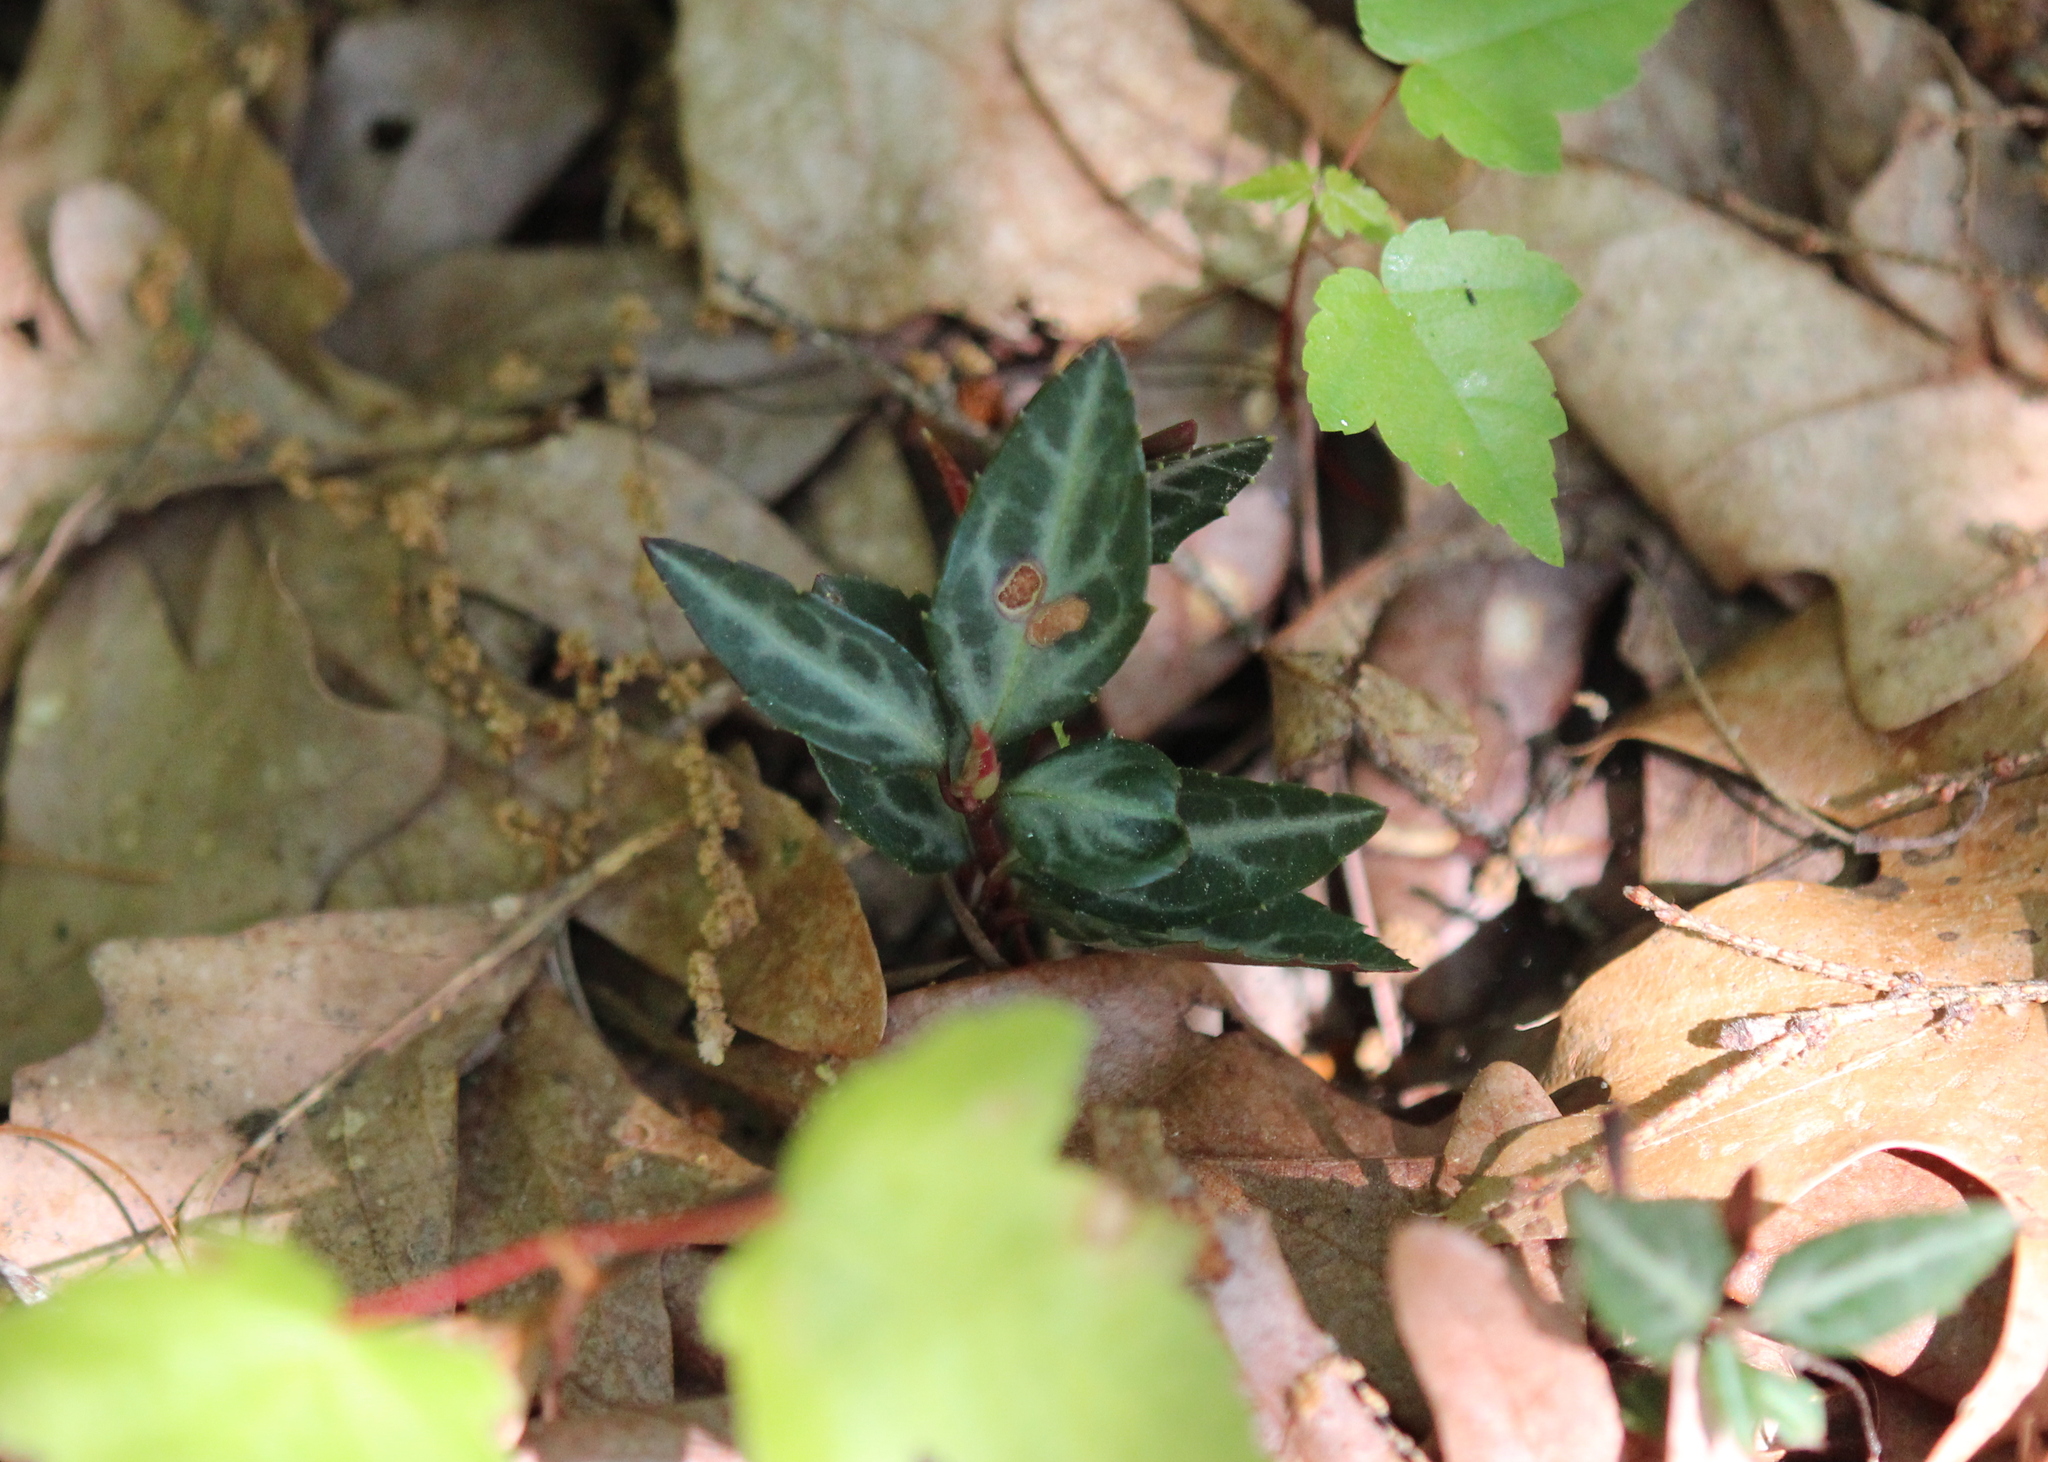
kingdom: Plantae
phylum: Tracheophyta
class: Magnoliopsida
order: Ericales
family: Ericaceae
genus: Chimaphila
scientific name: Chimaphila maculata
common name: Spotted pipsissewa
